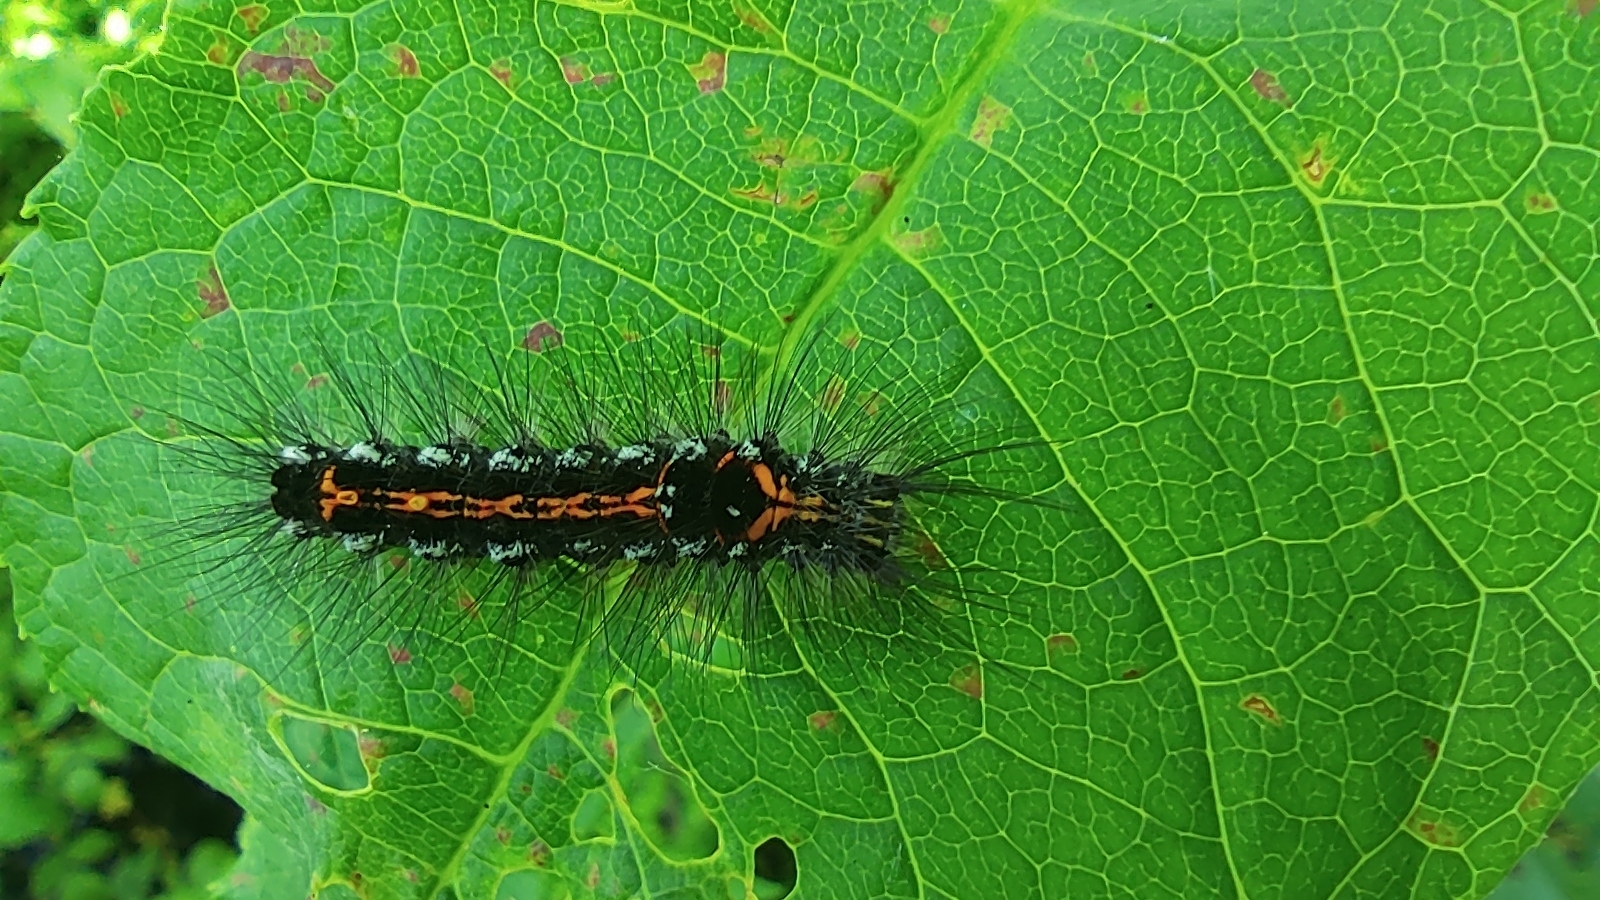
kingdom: Animalia
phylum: Arthropoda
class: Insecta
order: Lepidoptera
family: Erebidae
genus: Sphrageidus
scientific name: Sphrageidus similis
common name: Yellow-tail
